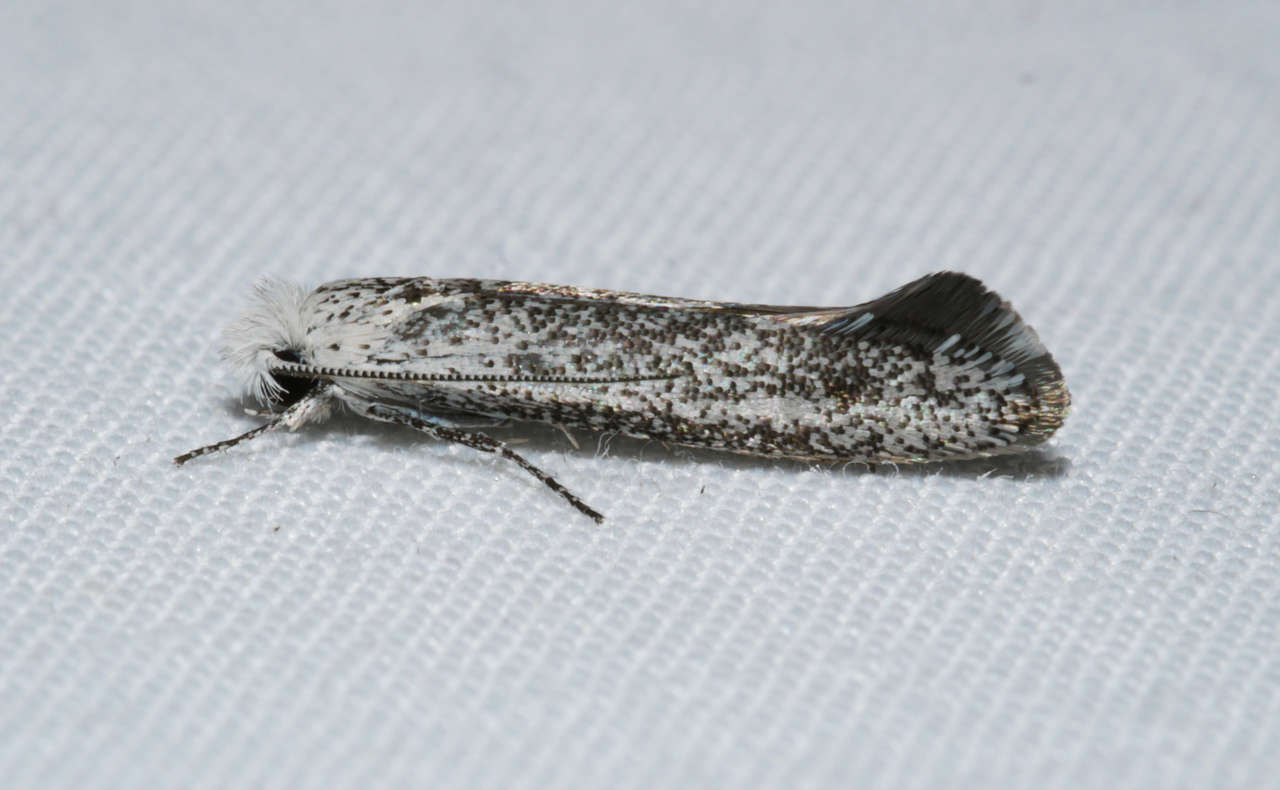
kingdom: Animalia
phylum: Arthropoda
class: Insecta
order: Lepidoptera
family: Tineidae
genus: Metapherna
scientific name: Metapherna salsa
